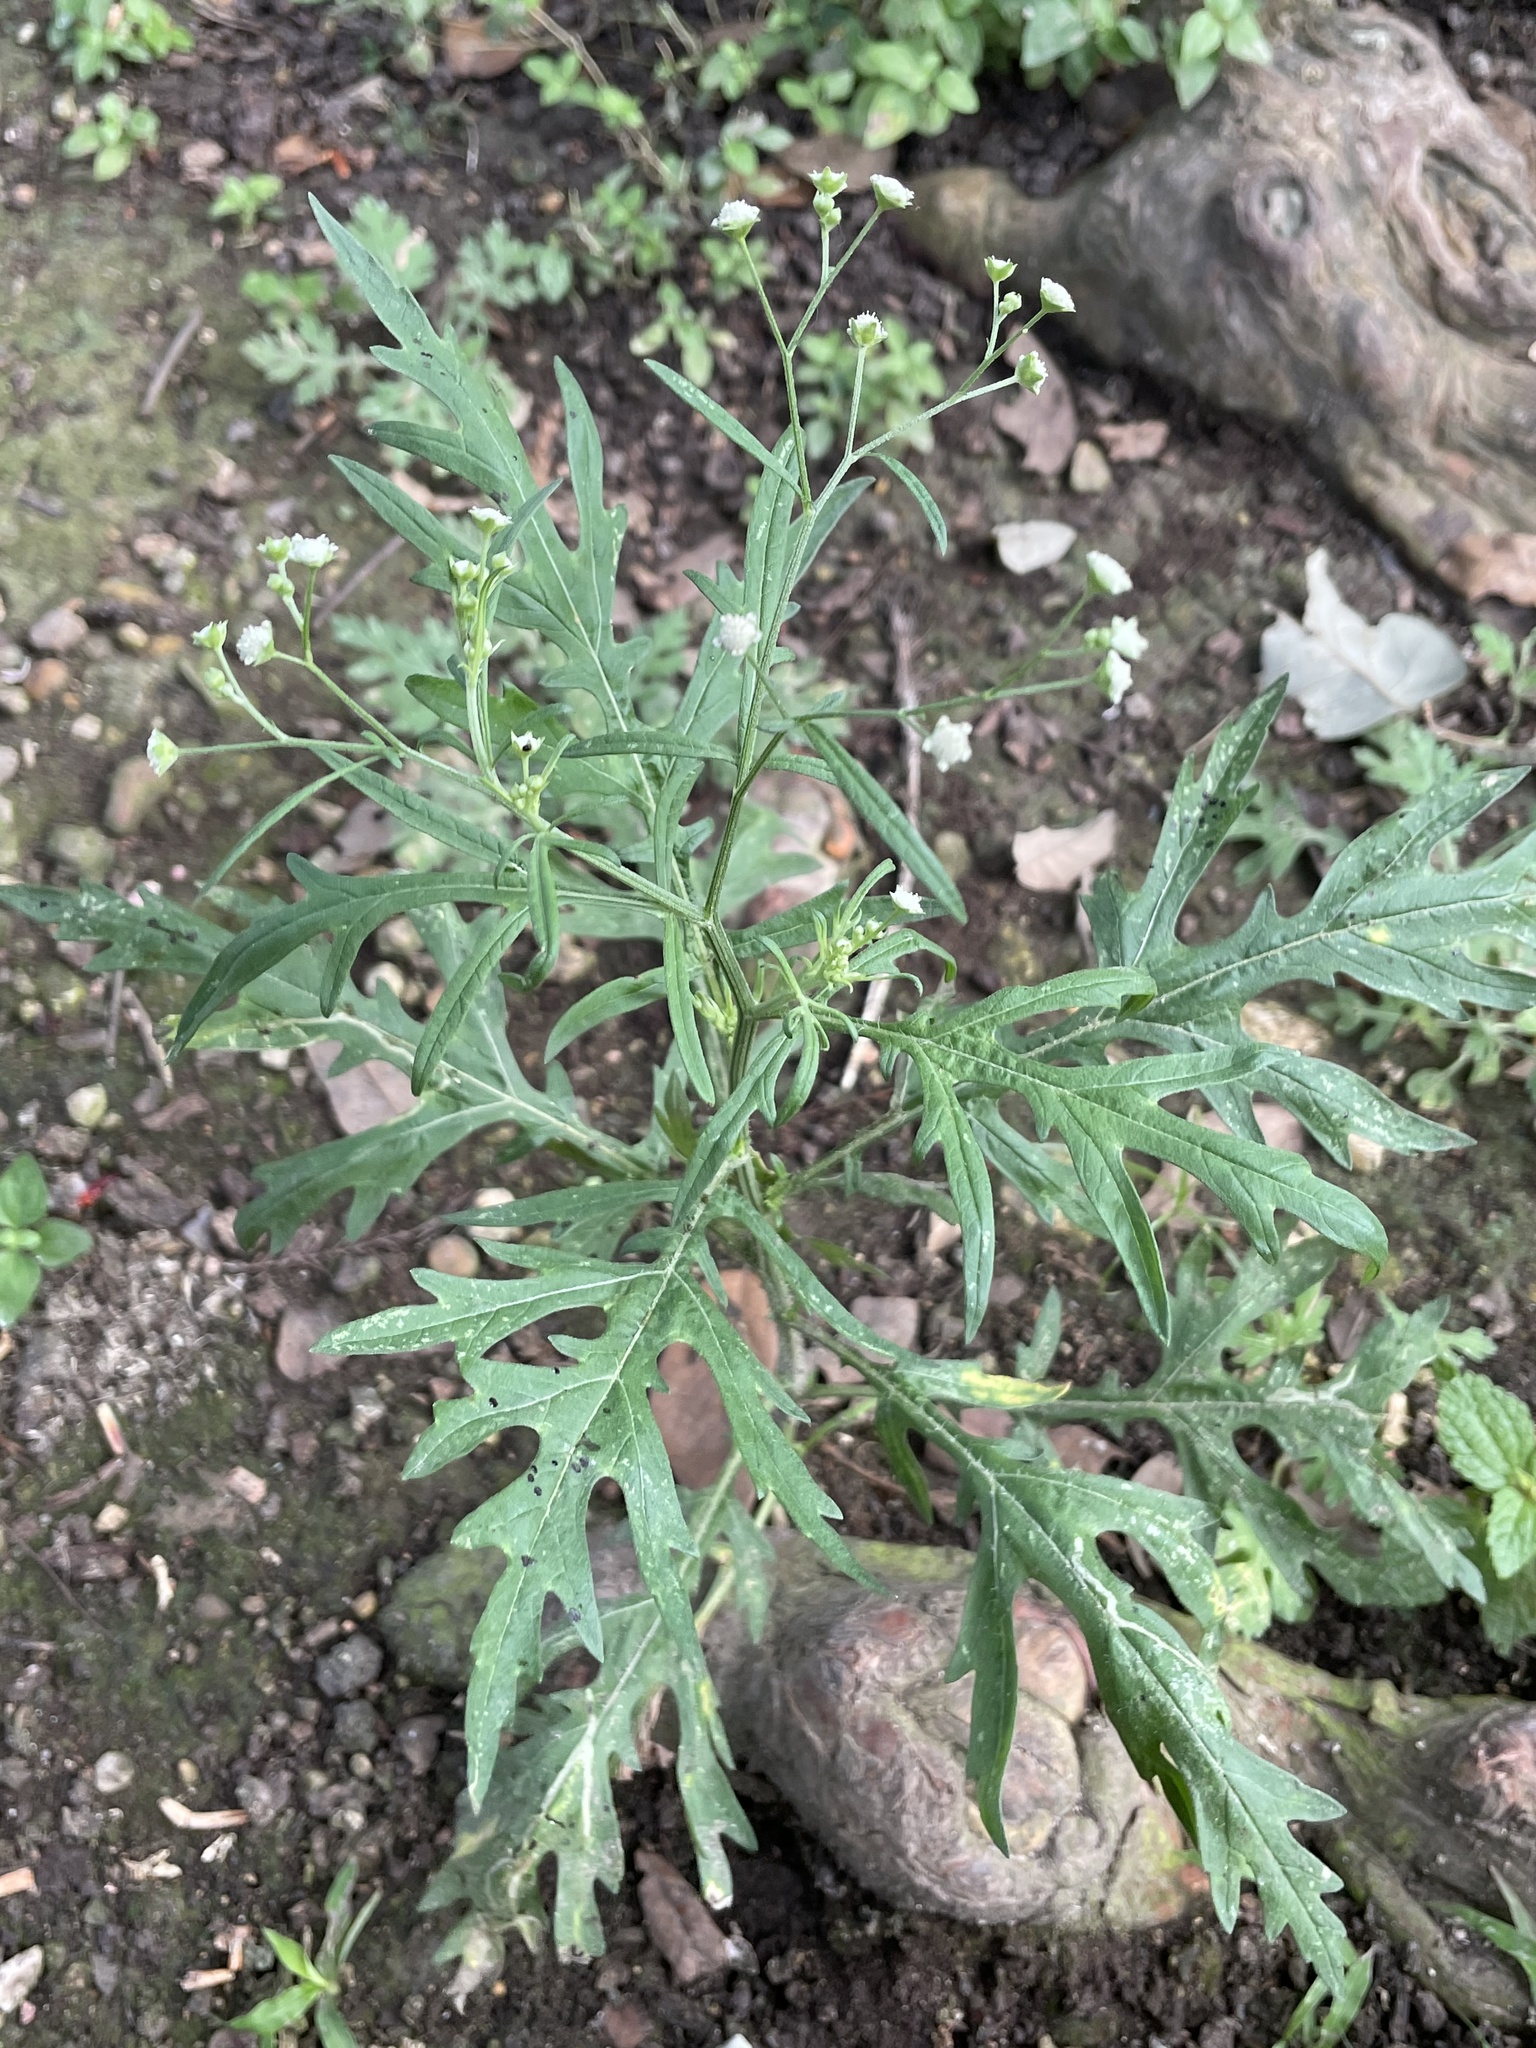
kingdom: Plantae
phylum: Tracheophyta
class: Magnoliopsida
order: Asterales
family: Asteraceae
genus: Parthenium
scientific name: Parthenium hysterophorus
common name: Santa maria feverfew
